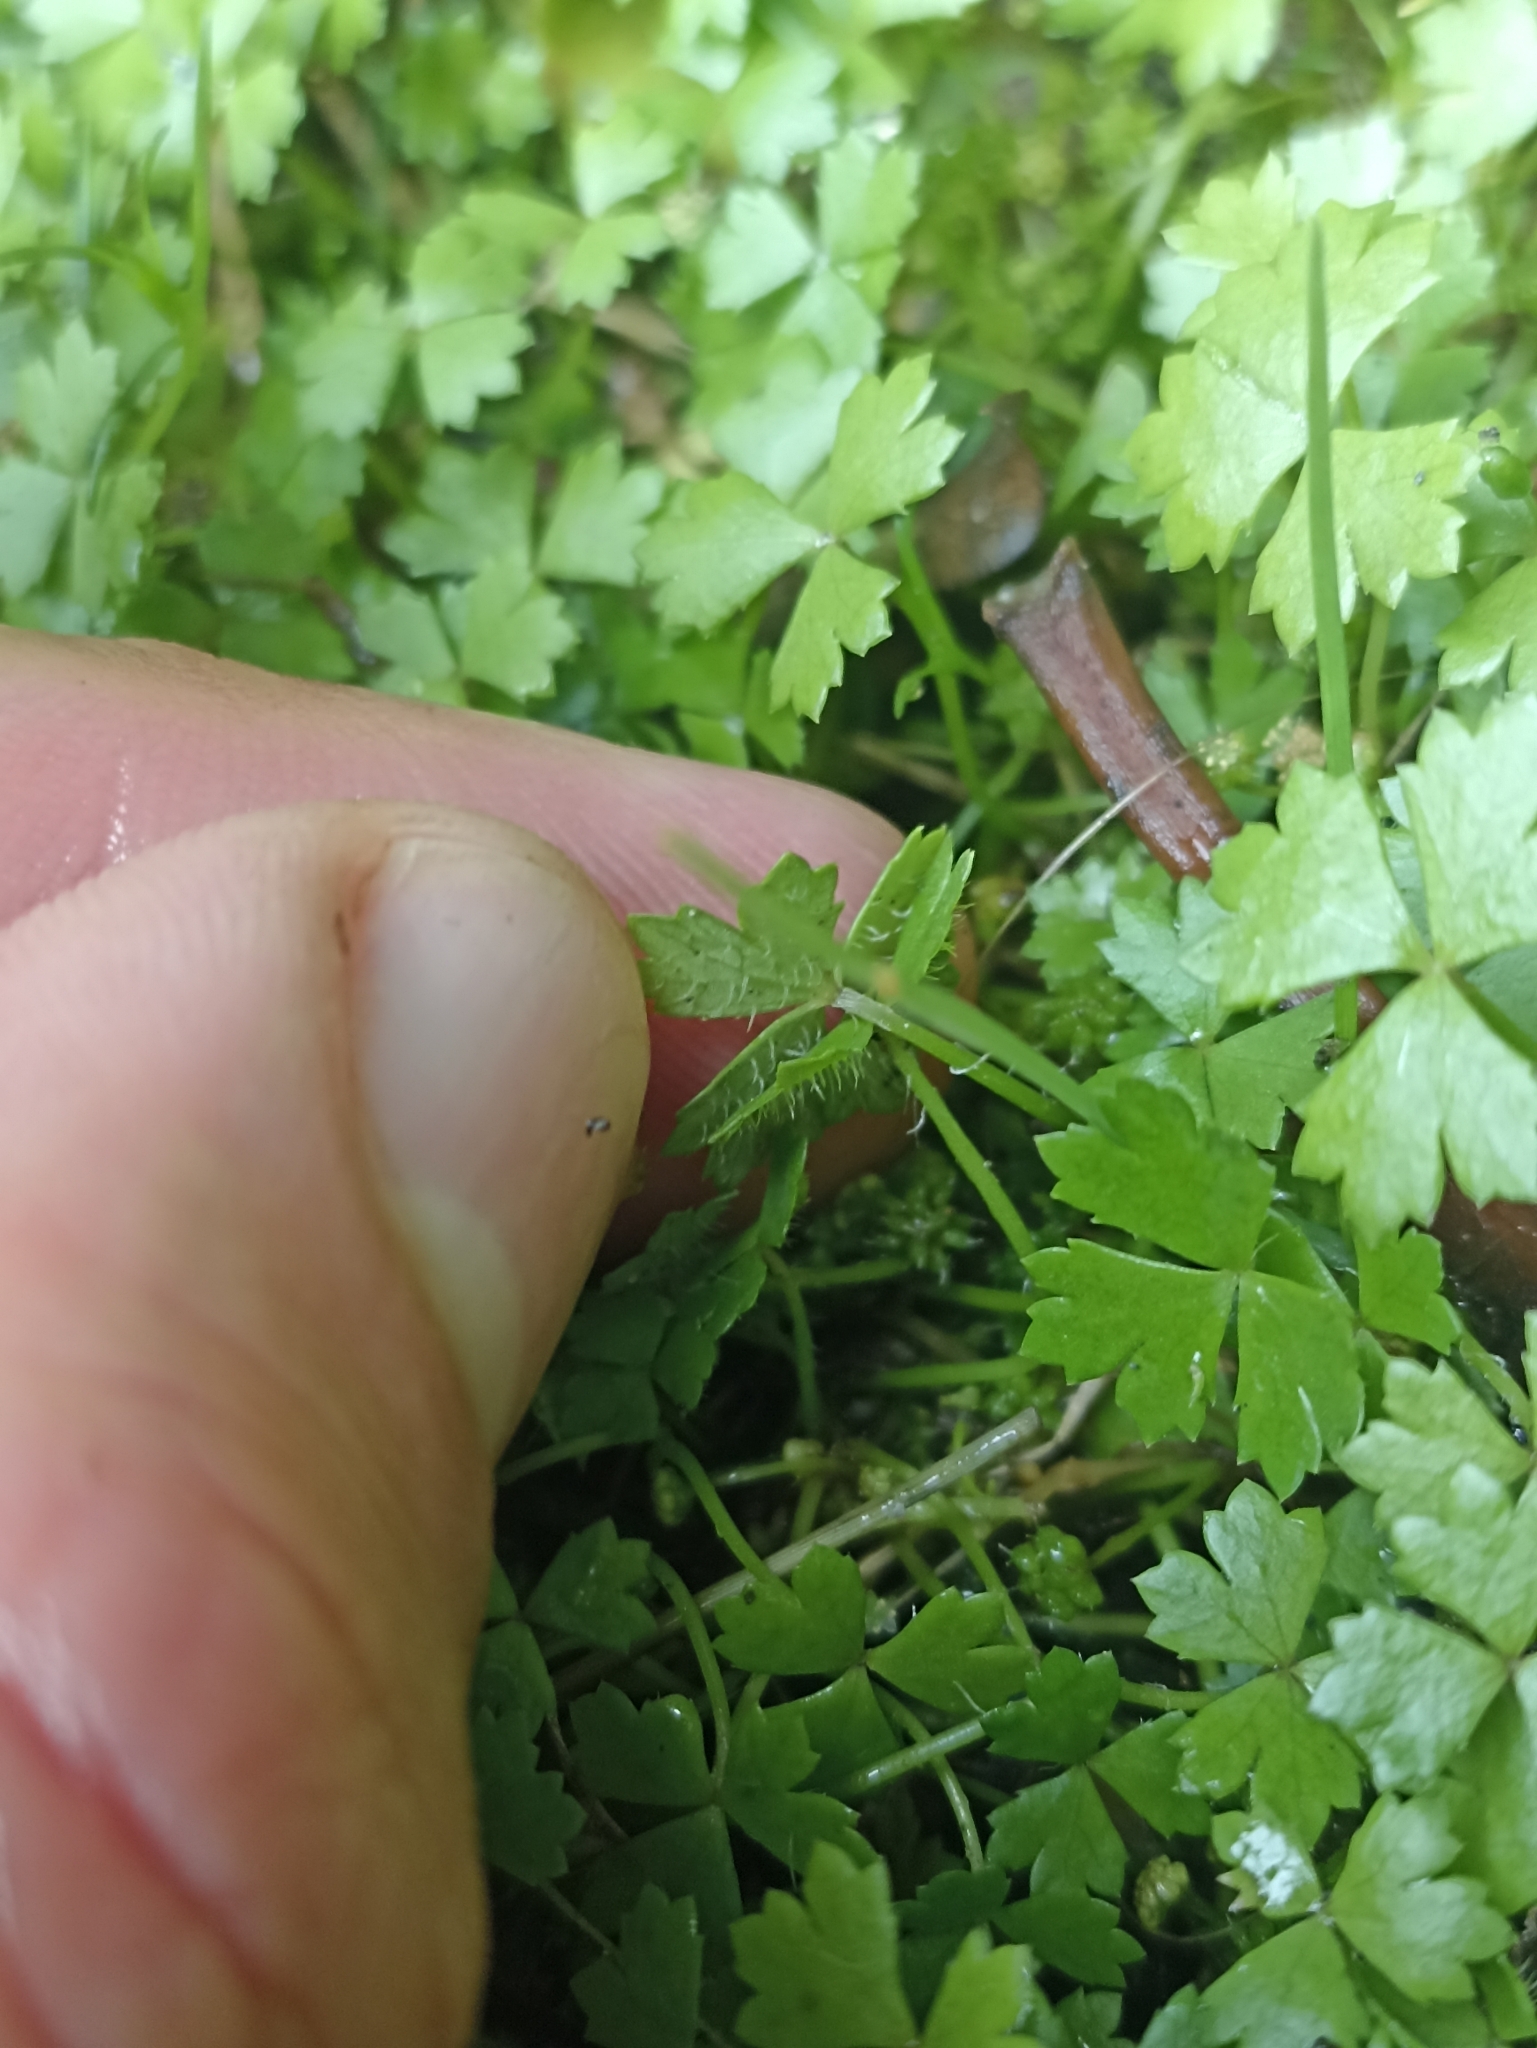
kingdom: Plantae
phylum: Tracheophyta
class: Magnoliopsida
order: Apiales
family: Araliaceae
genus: Hydrocotyle
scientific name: Hydrocotyle tripartita
